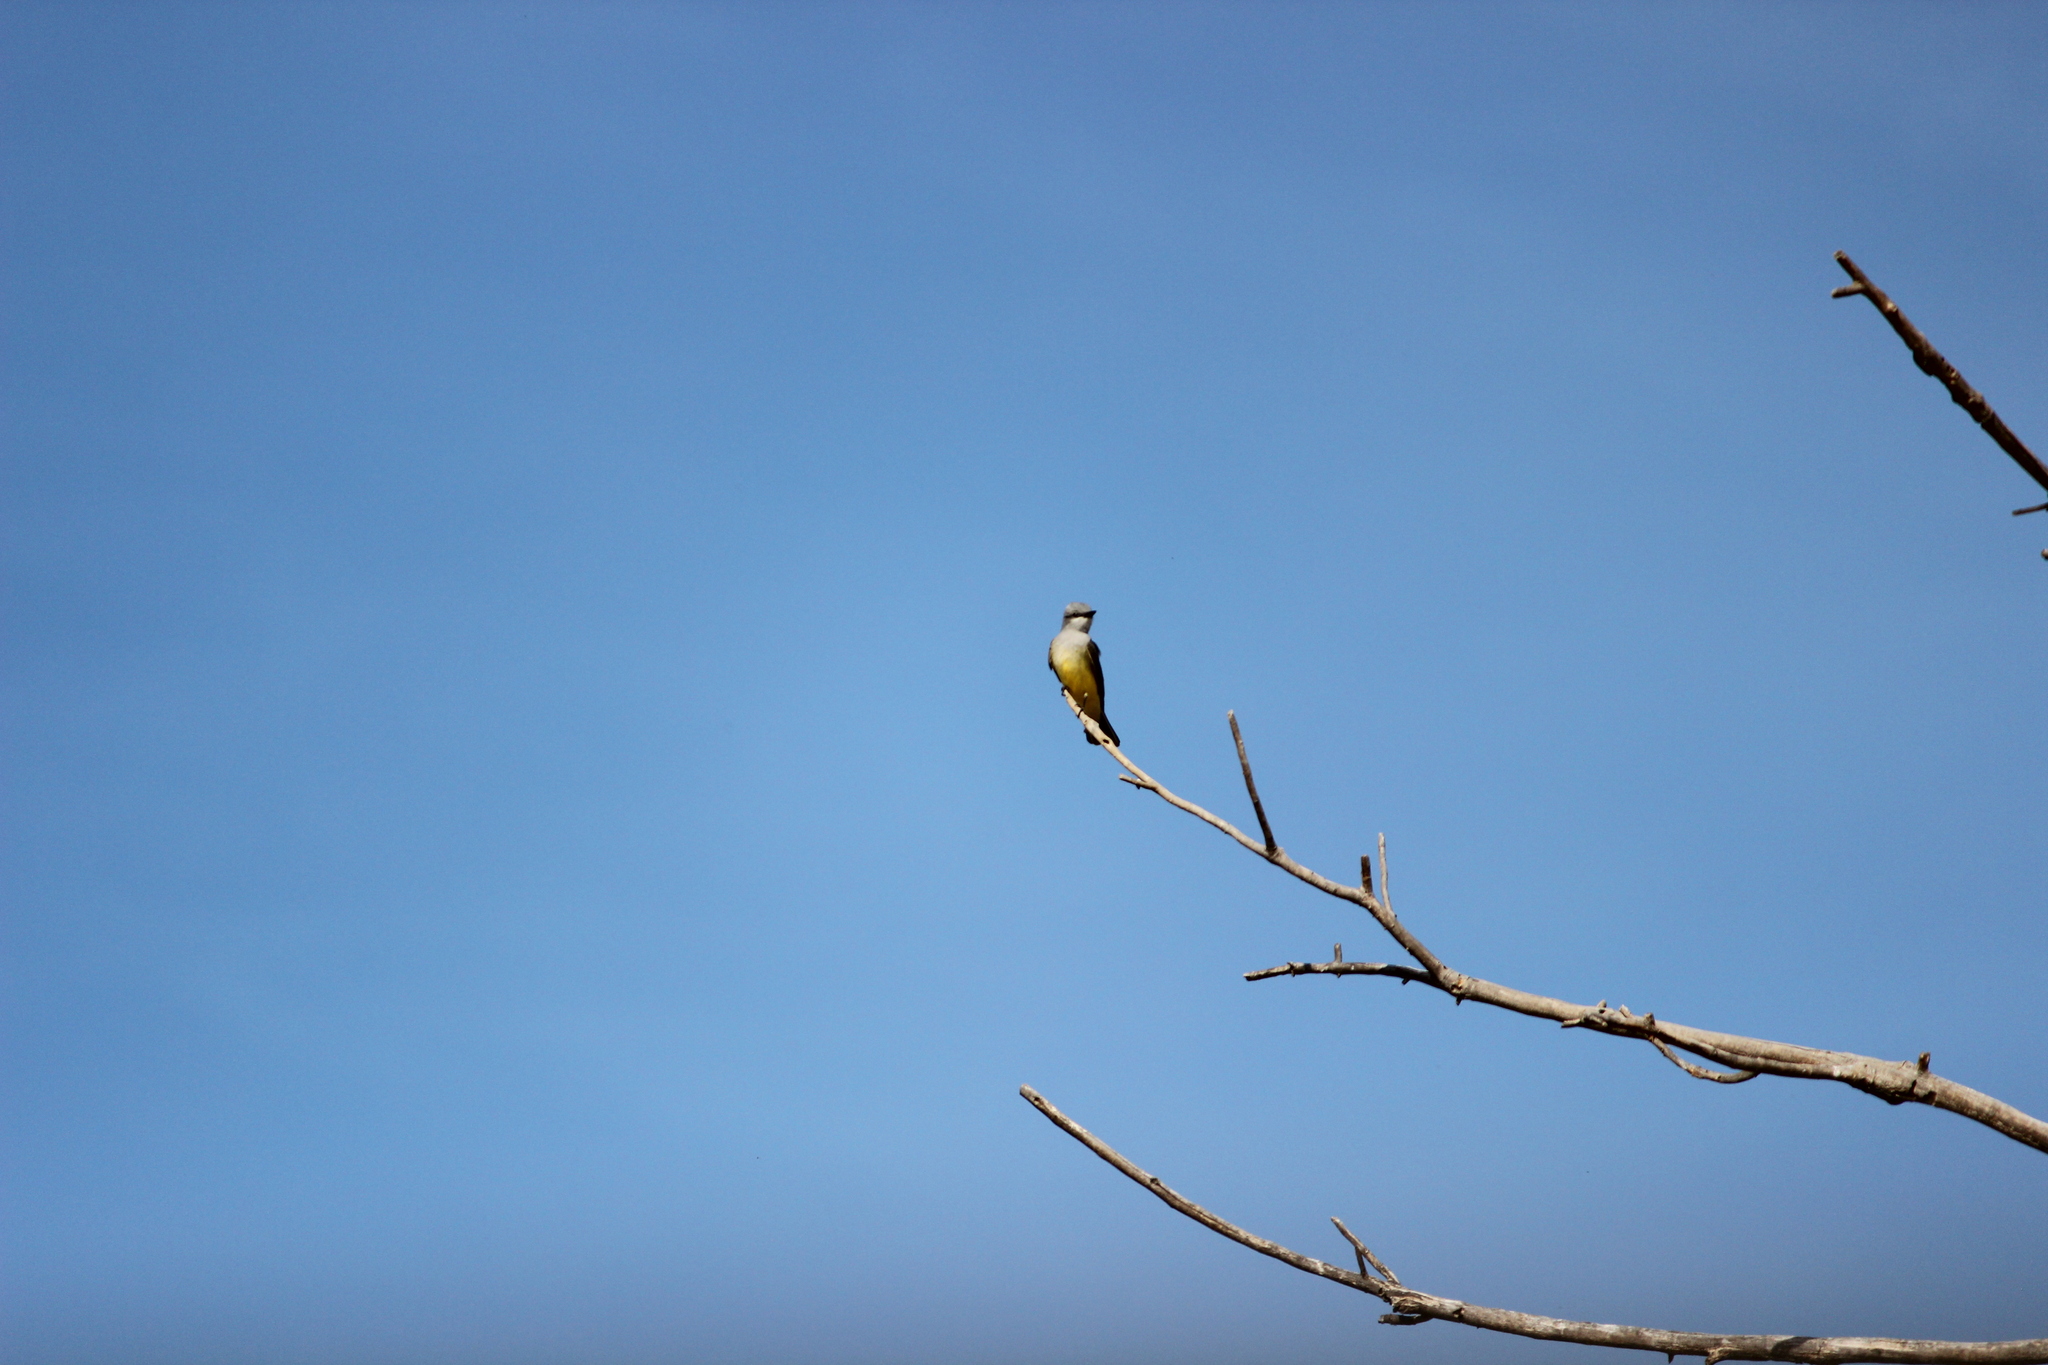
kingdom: Animalia
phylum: Chordata
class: Aves
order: Passeriformes
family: Tyrannidae
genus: Tyrannus
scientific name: Tyrannus verticalis
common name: Western kingbird
